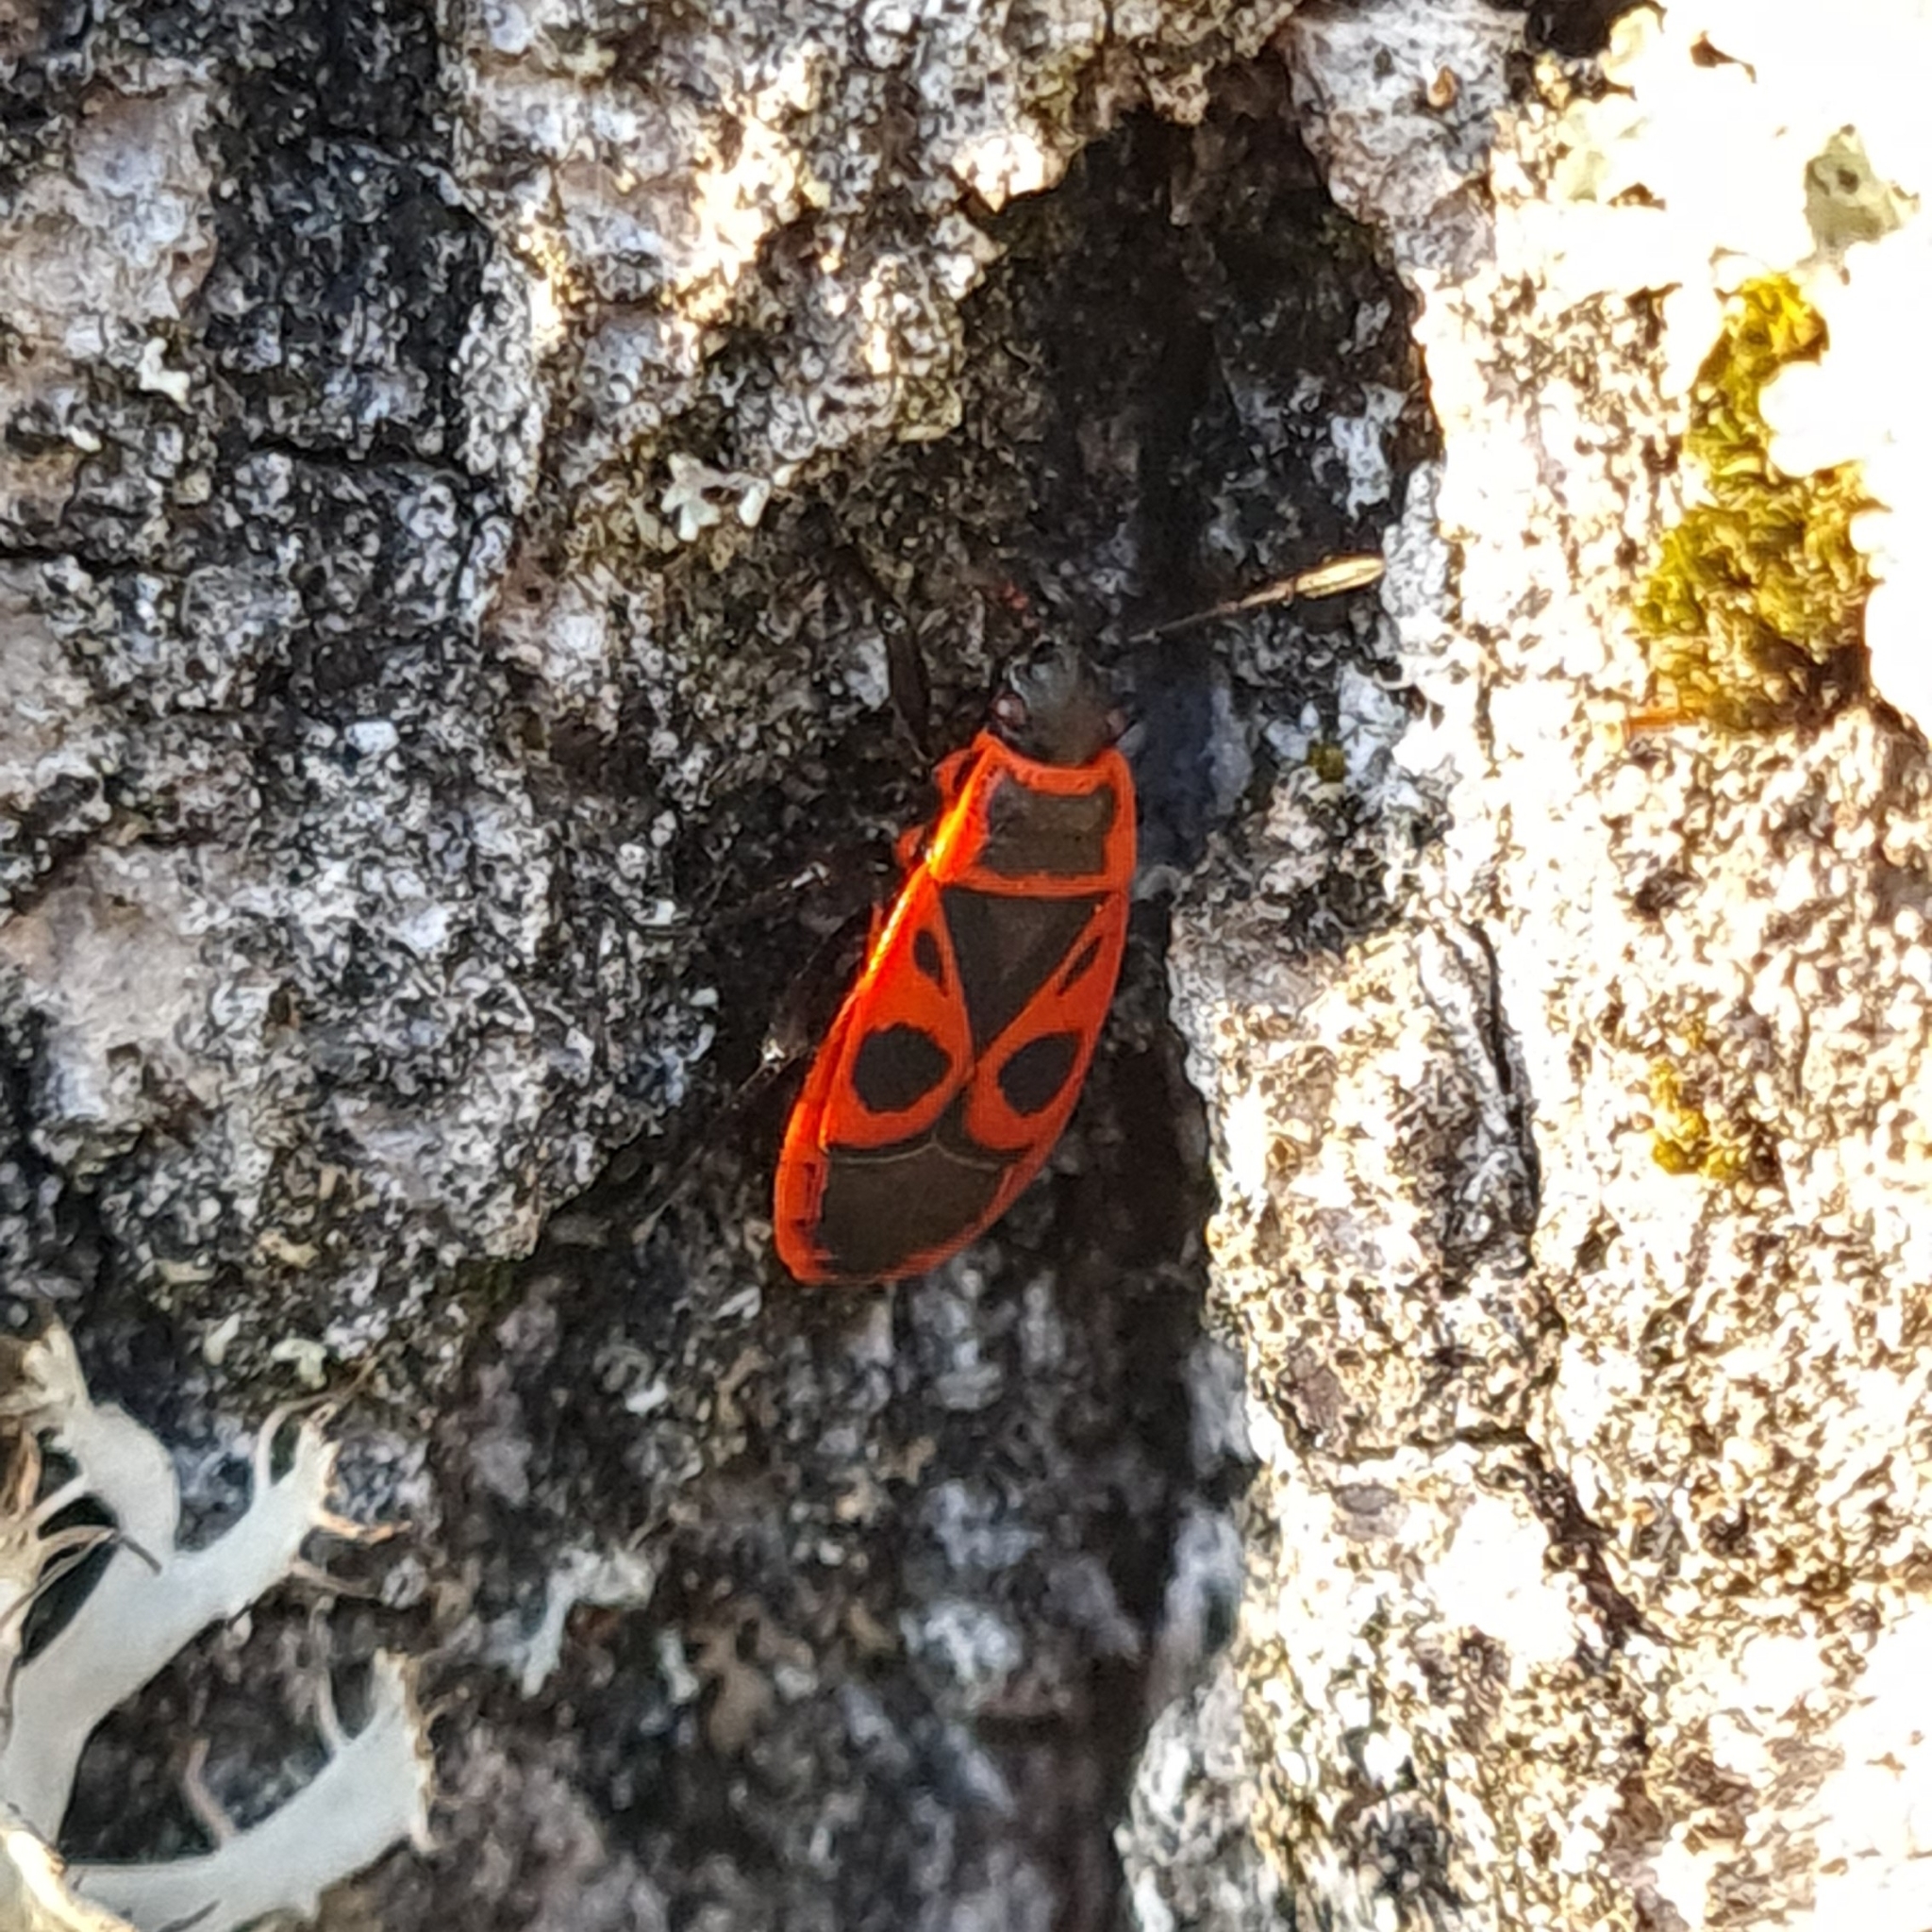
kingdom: Animalia
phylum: Arthropoda
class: Insecta
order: Hemiptera
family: Pyrrhocoridae
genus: Pyrrhocoris
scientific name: Pyrrhocoris apterus
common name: Firebug
